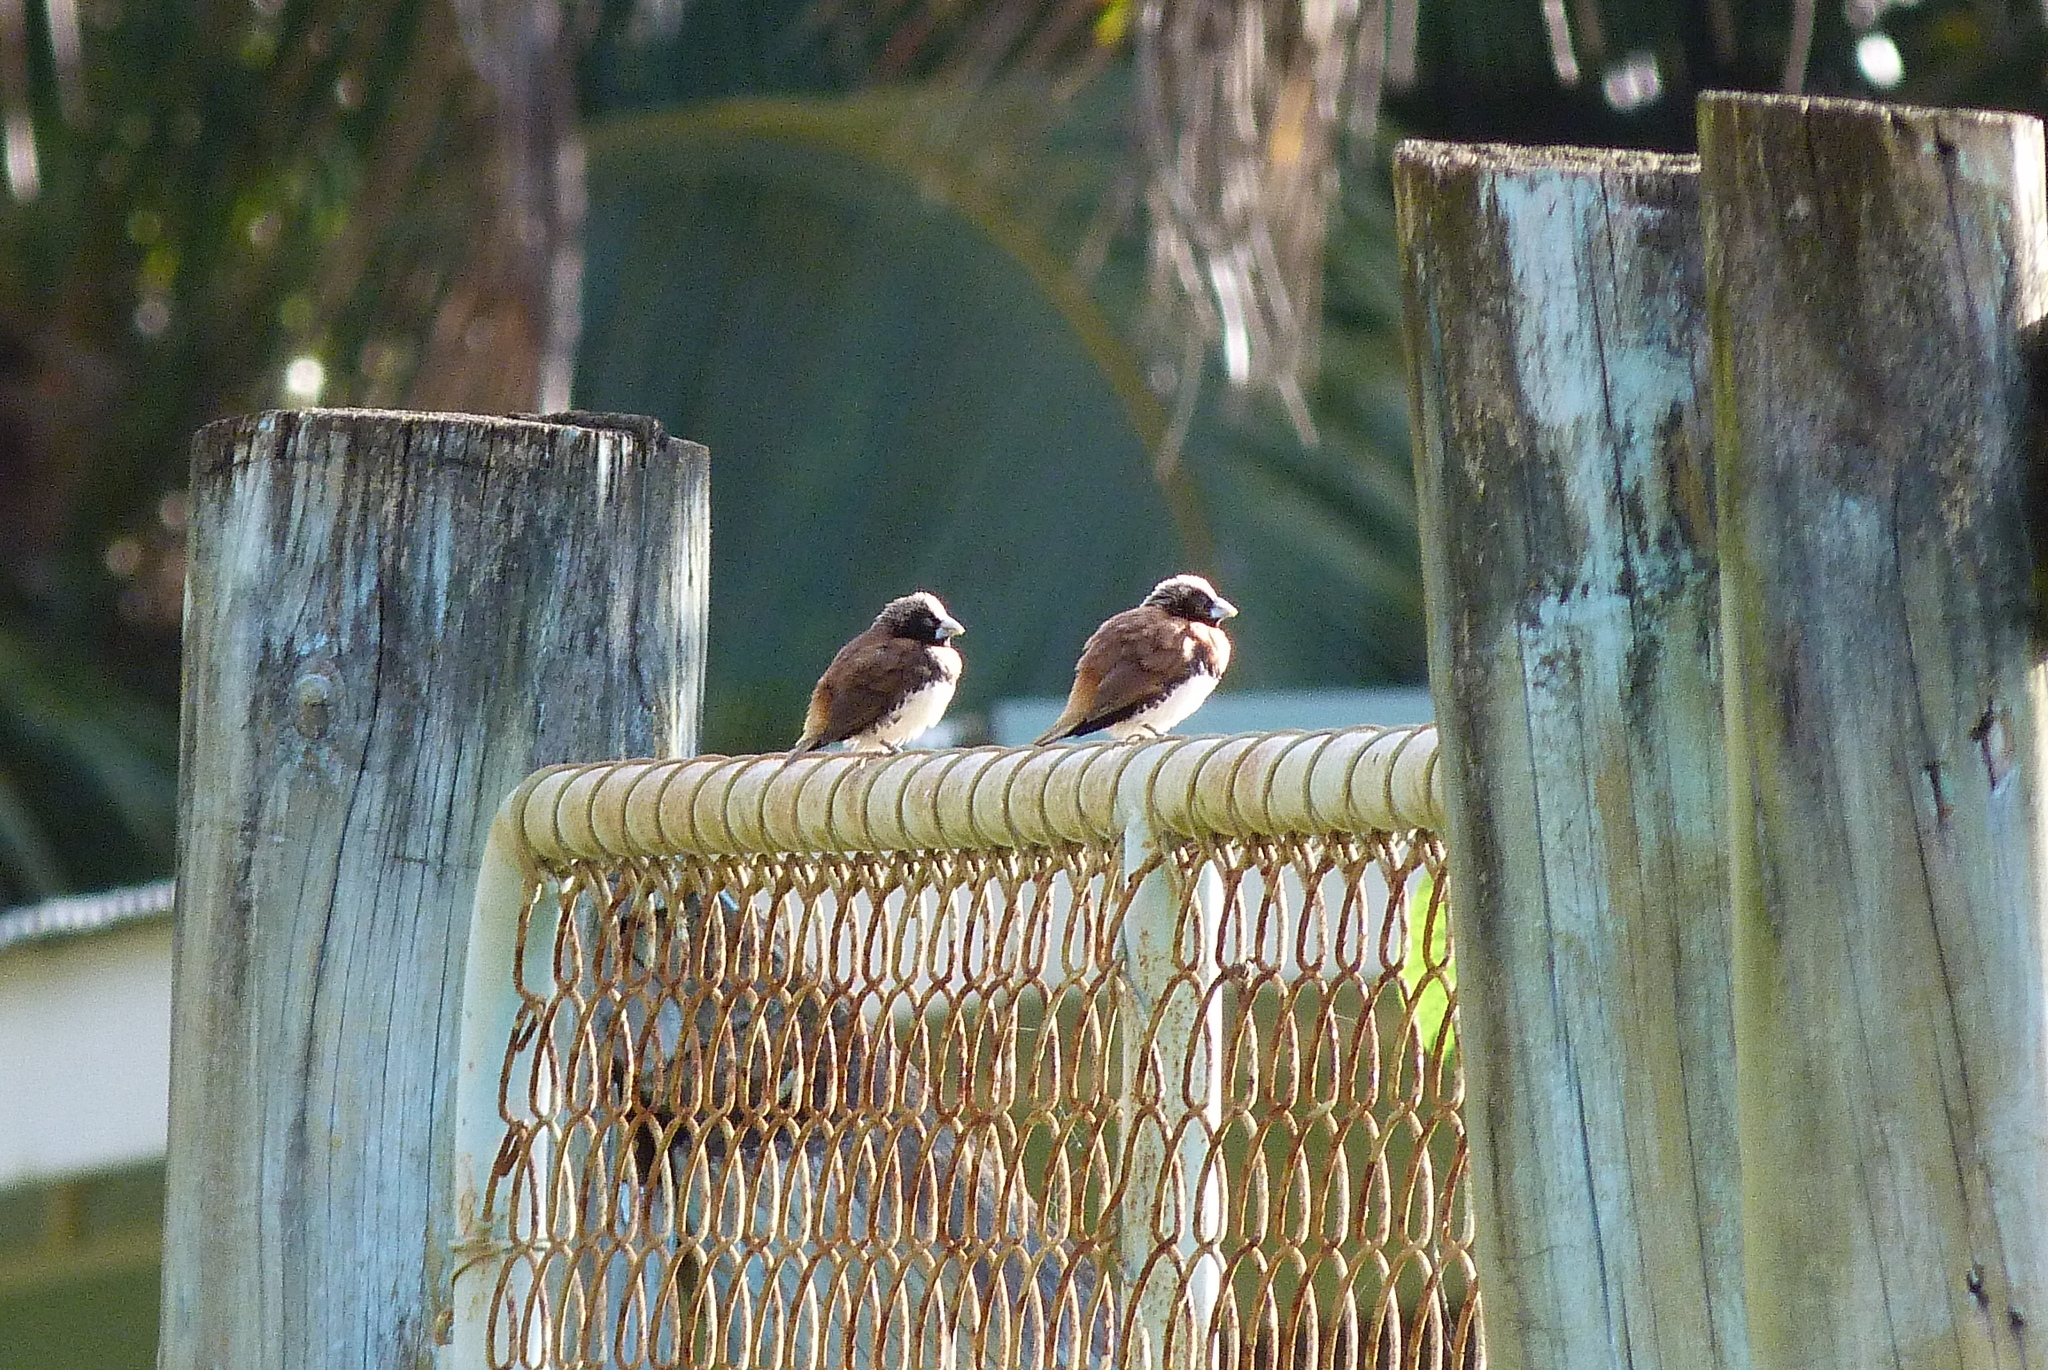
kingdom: Animalia
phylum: Chordata
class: Aves
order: Passeriformes
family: Estrildidae
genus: Lonchura
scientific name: Lonchura castaneothorax
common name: Chestnut-breasted mannikin
